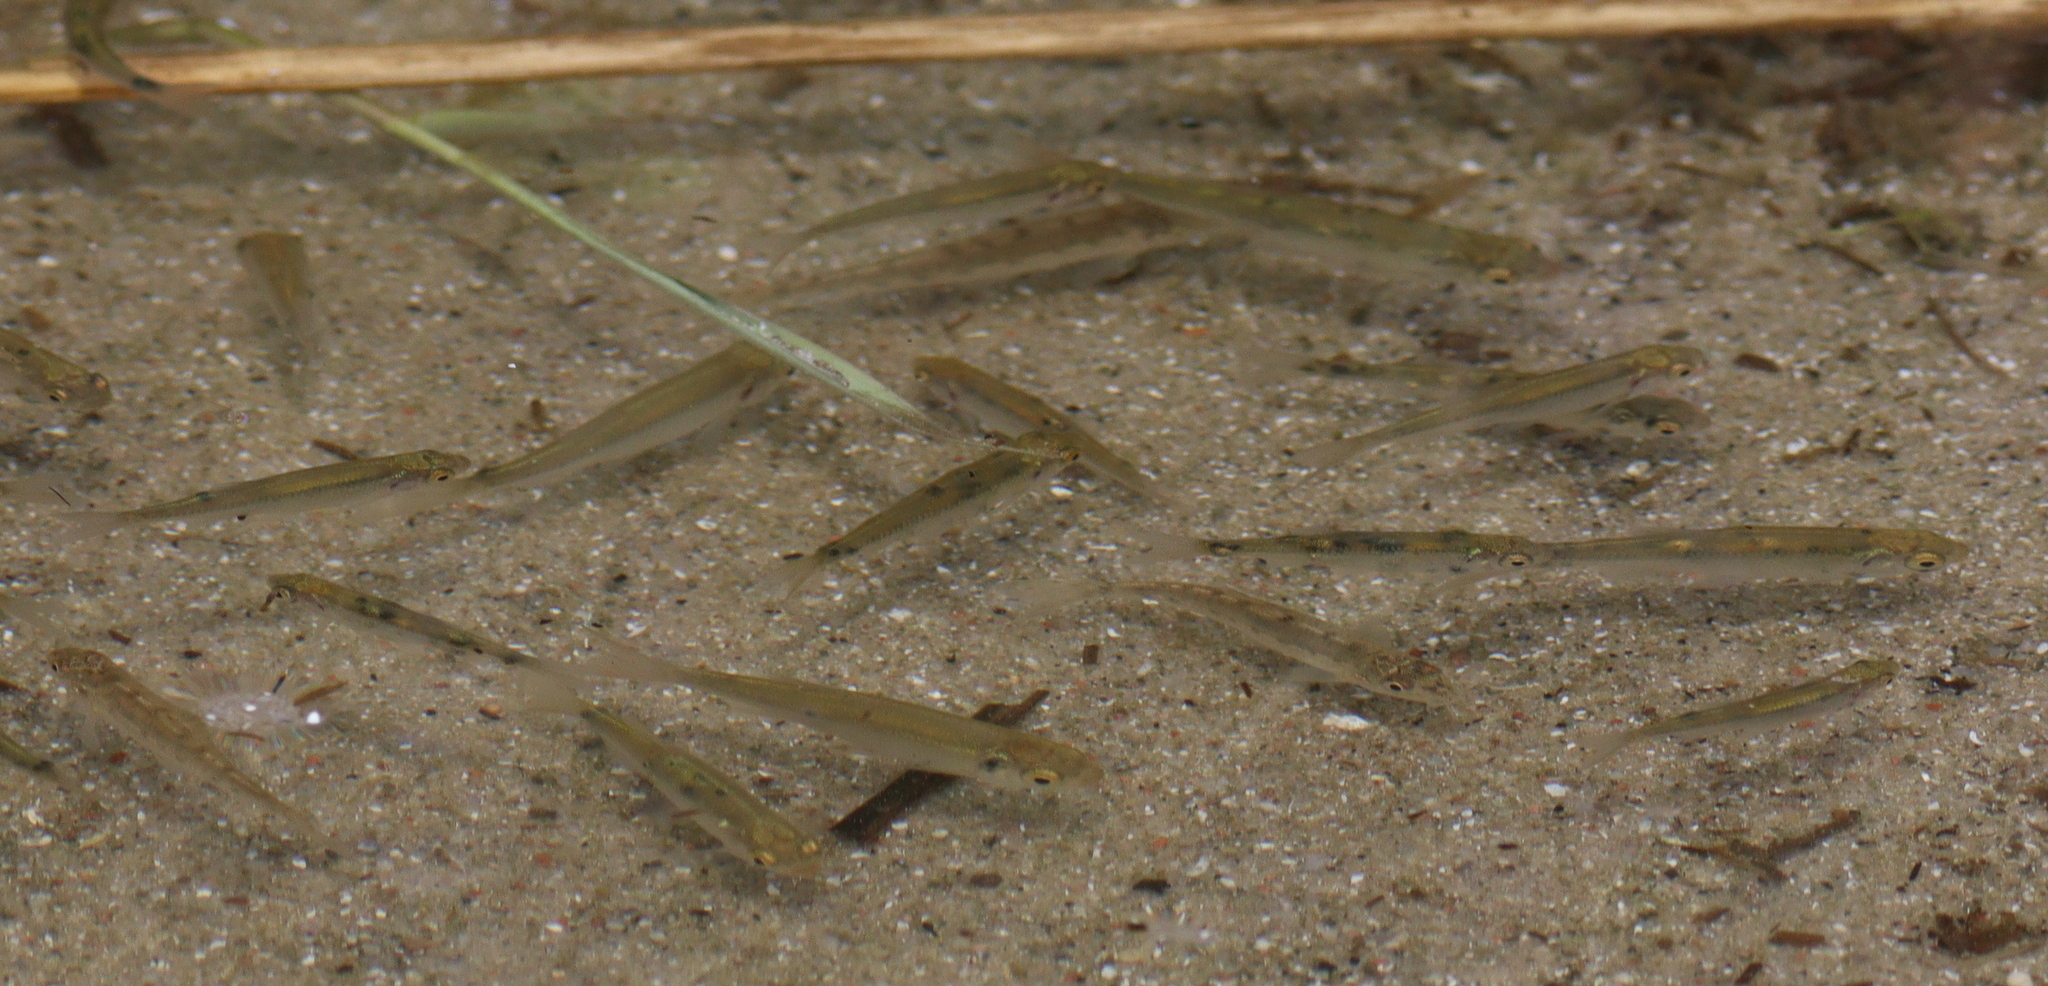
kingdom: Animalia
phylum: Chordata
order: Cypriniformes
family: Cyprinidae
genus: Alburnus
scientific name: Alburnus alburnus
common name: Bleak
